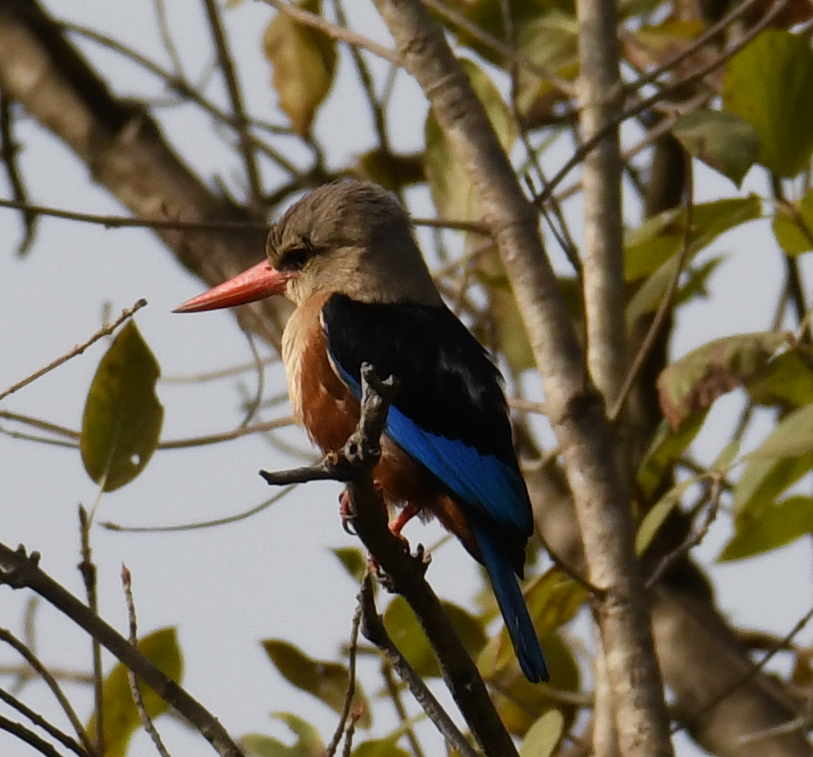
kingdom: Animalia
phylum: Chordata
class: Aves
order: Coraciiformes
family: Alcedinidae
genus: Halcyon
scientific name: Halcyon leucocephala
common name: Grey-headed kingfisher
